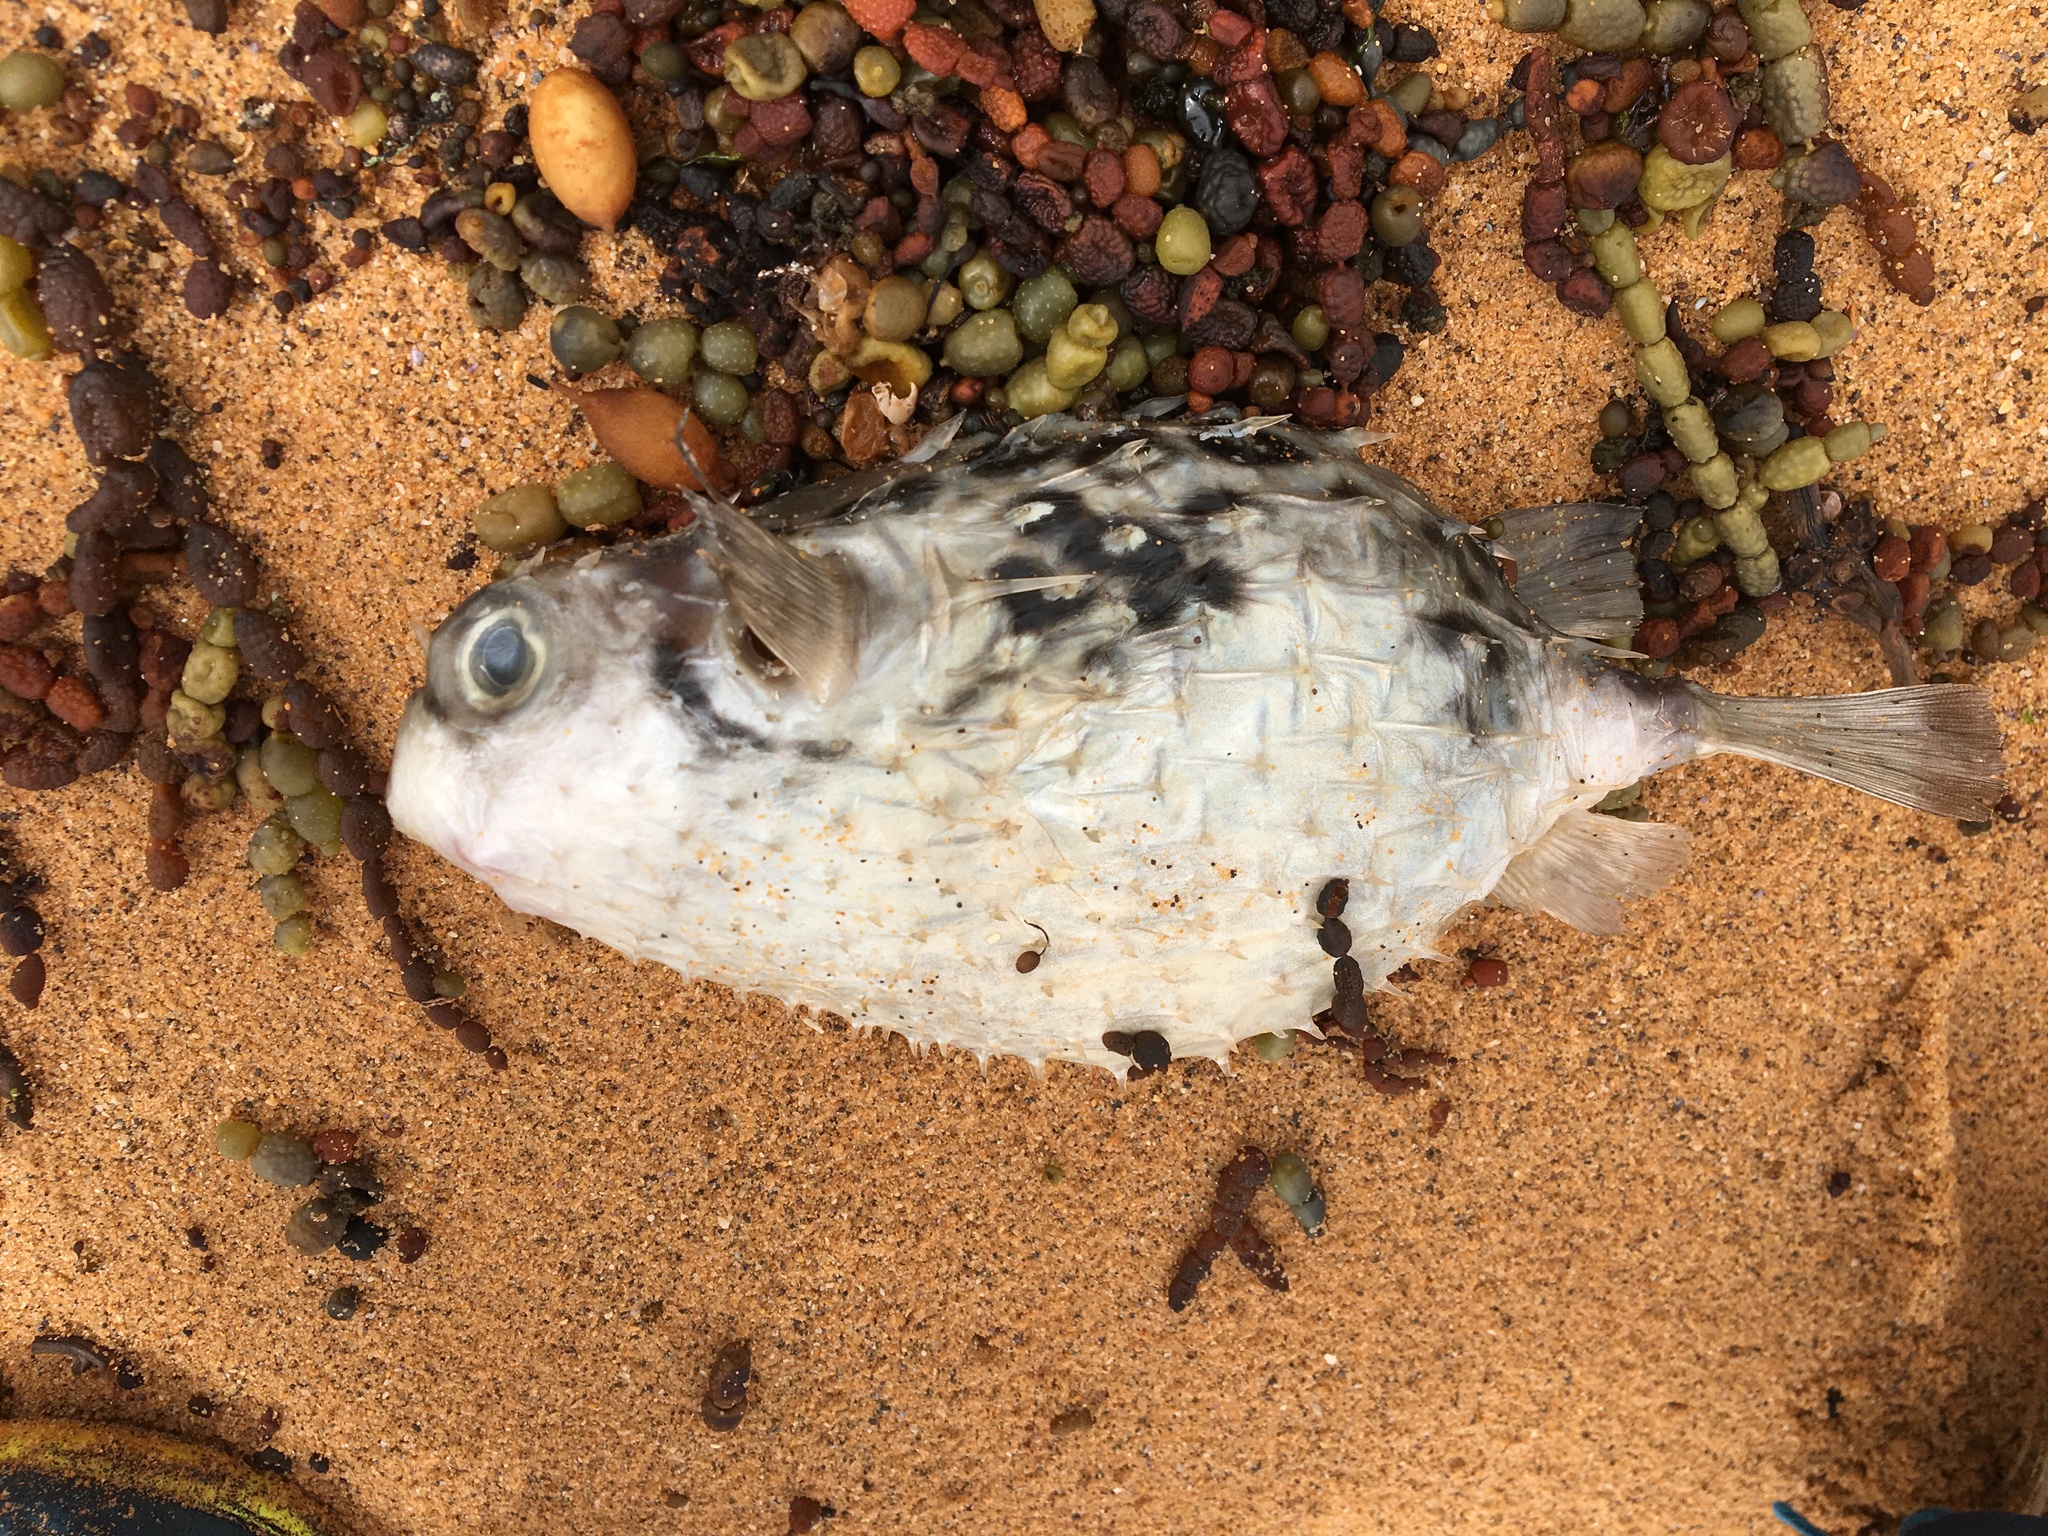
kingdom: Animalia
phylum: Chordata
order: Tetraodontiformes
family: Diodontidae
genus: Allomycterus
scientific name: Allomycterus pilatus
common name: No common name
